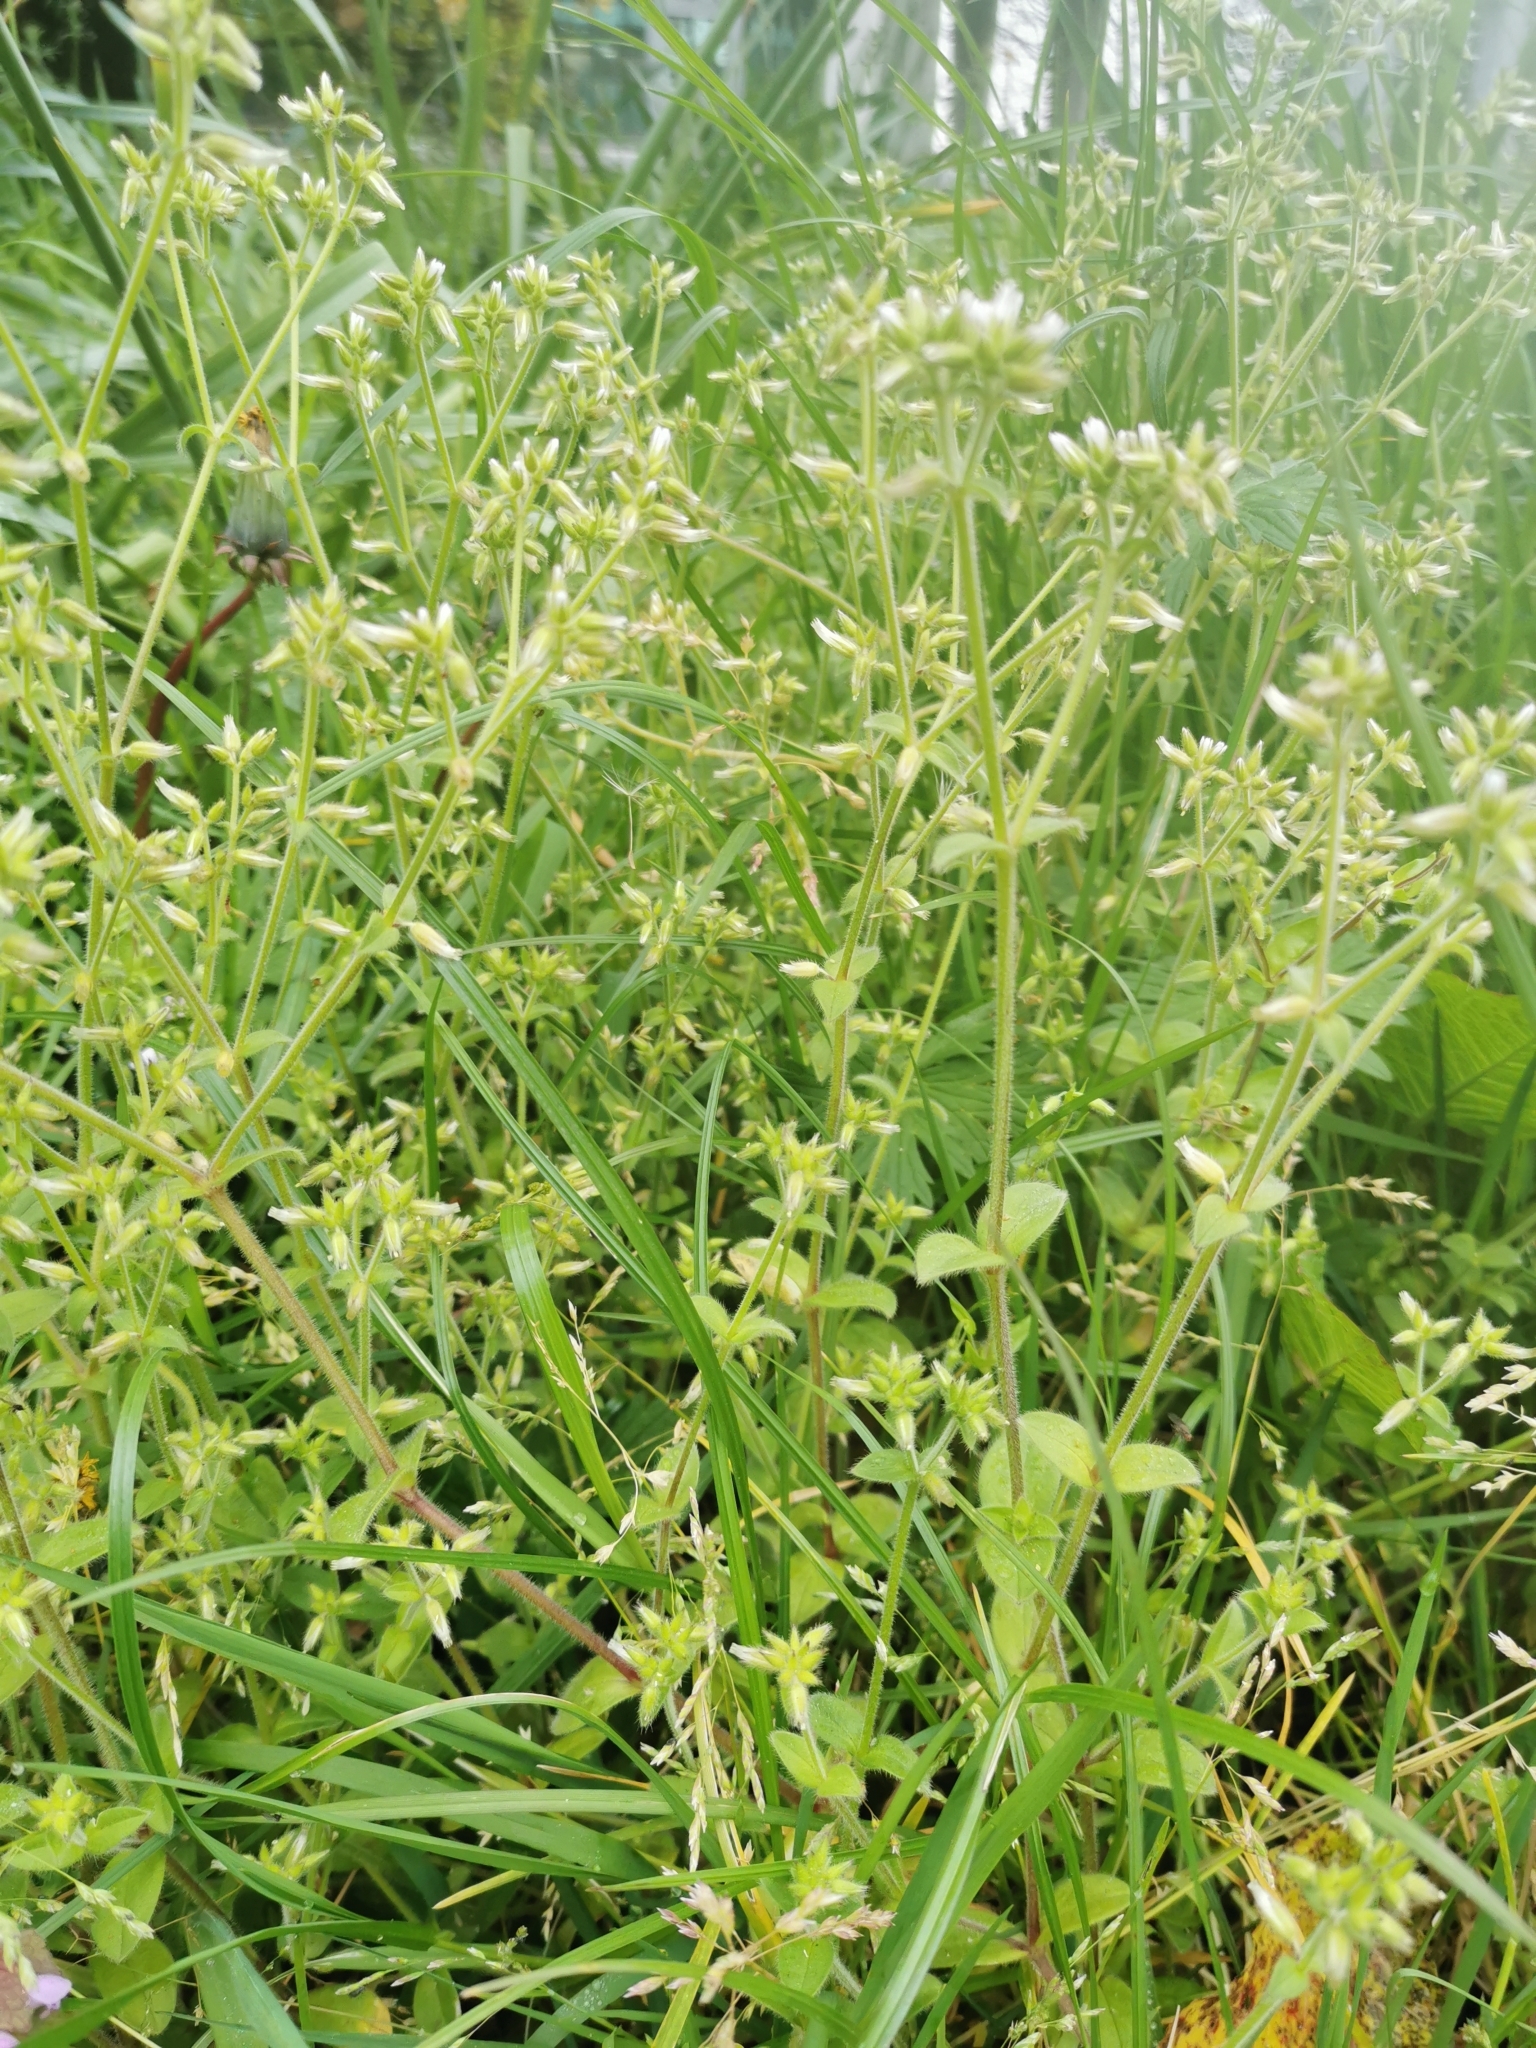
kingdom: Plantae
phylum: Tracheophyta
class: Magnoliopsida
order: Caryophyllales
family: Caryophyllaceae
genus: Cerastium
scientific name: Cerastium glomeratum
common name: Sticky chickweed
